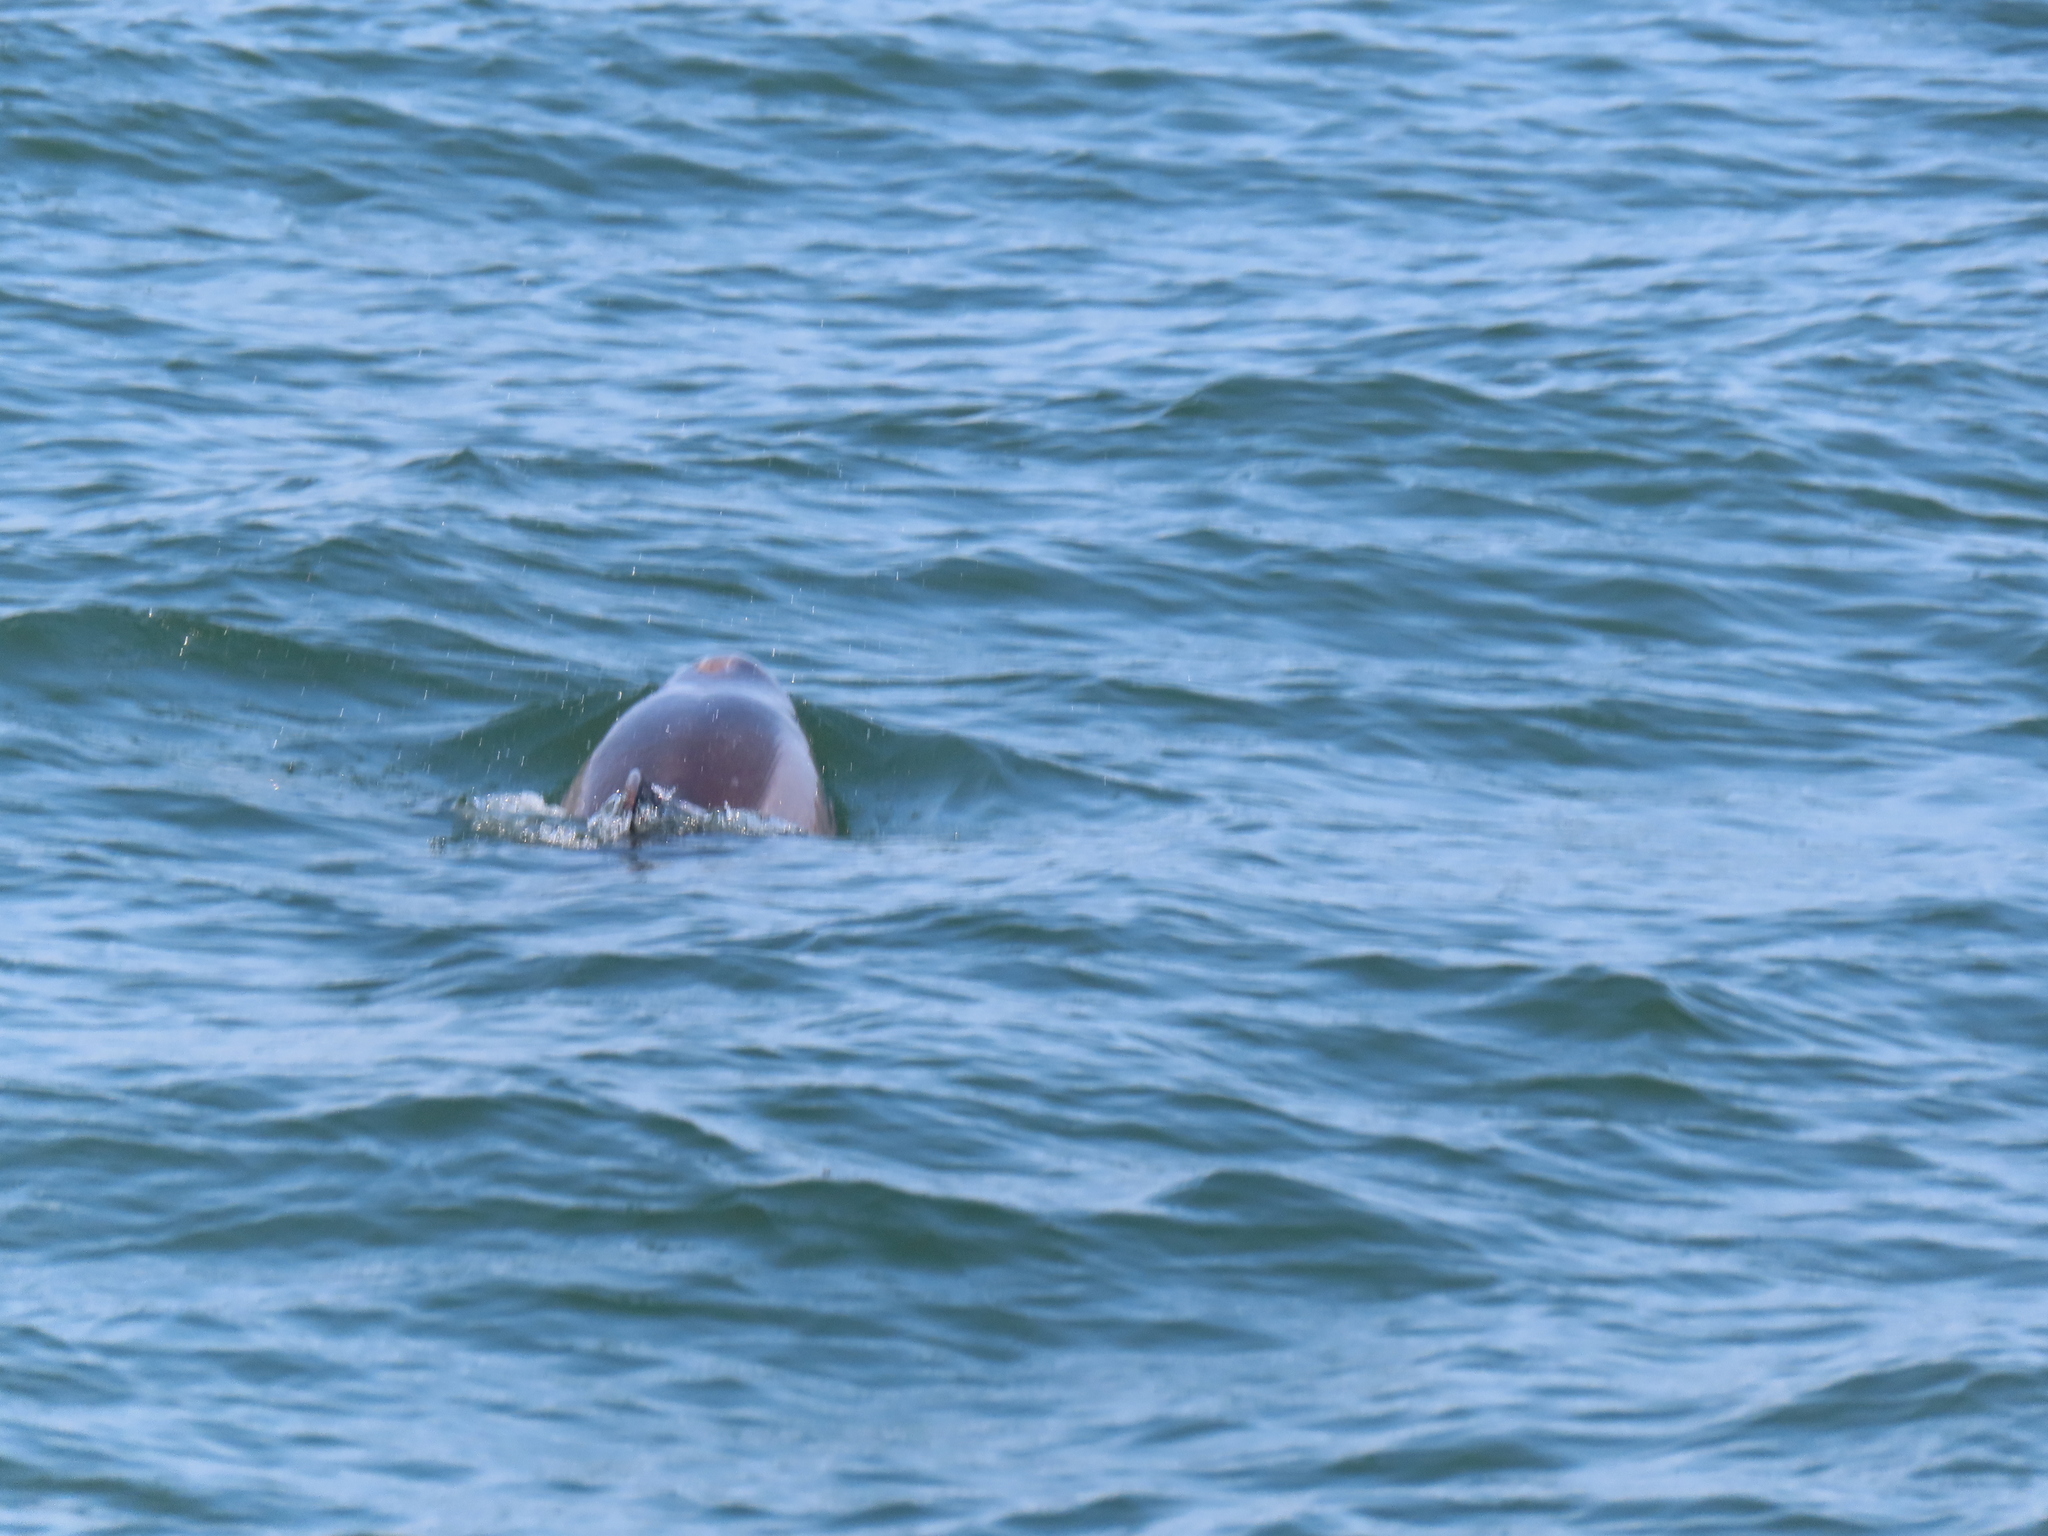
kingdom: Animalia
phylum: Chordata
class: Mammalia
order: Cetacea
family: Delphinidae
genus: Tursiops
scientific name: Tursiops truncatus
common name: Bottlenose dolphin
